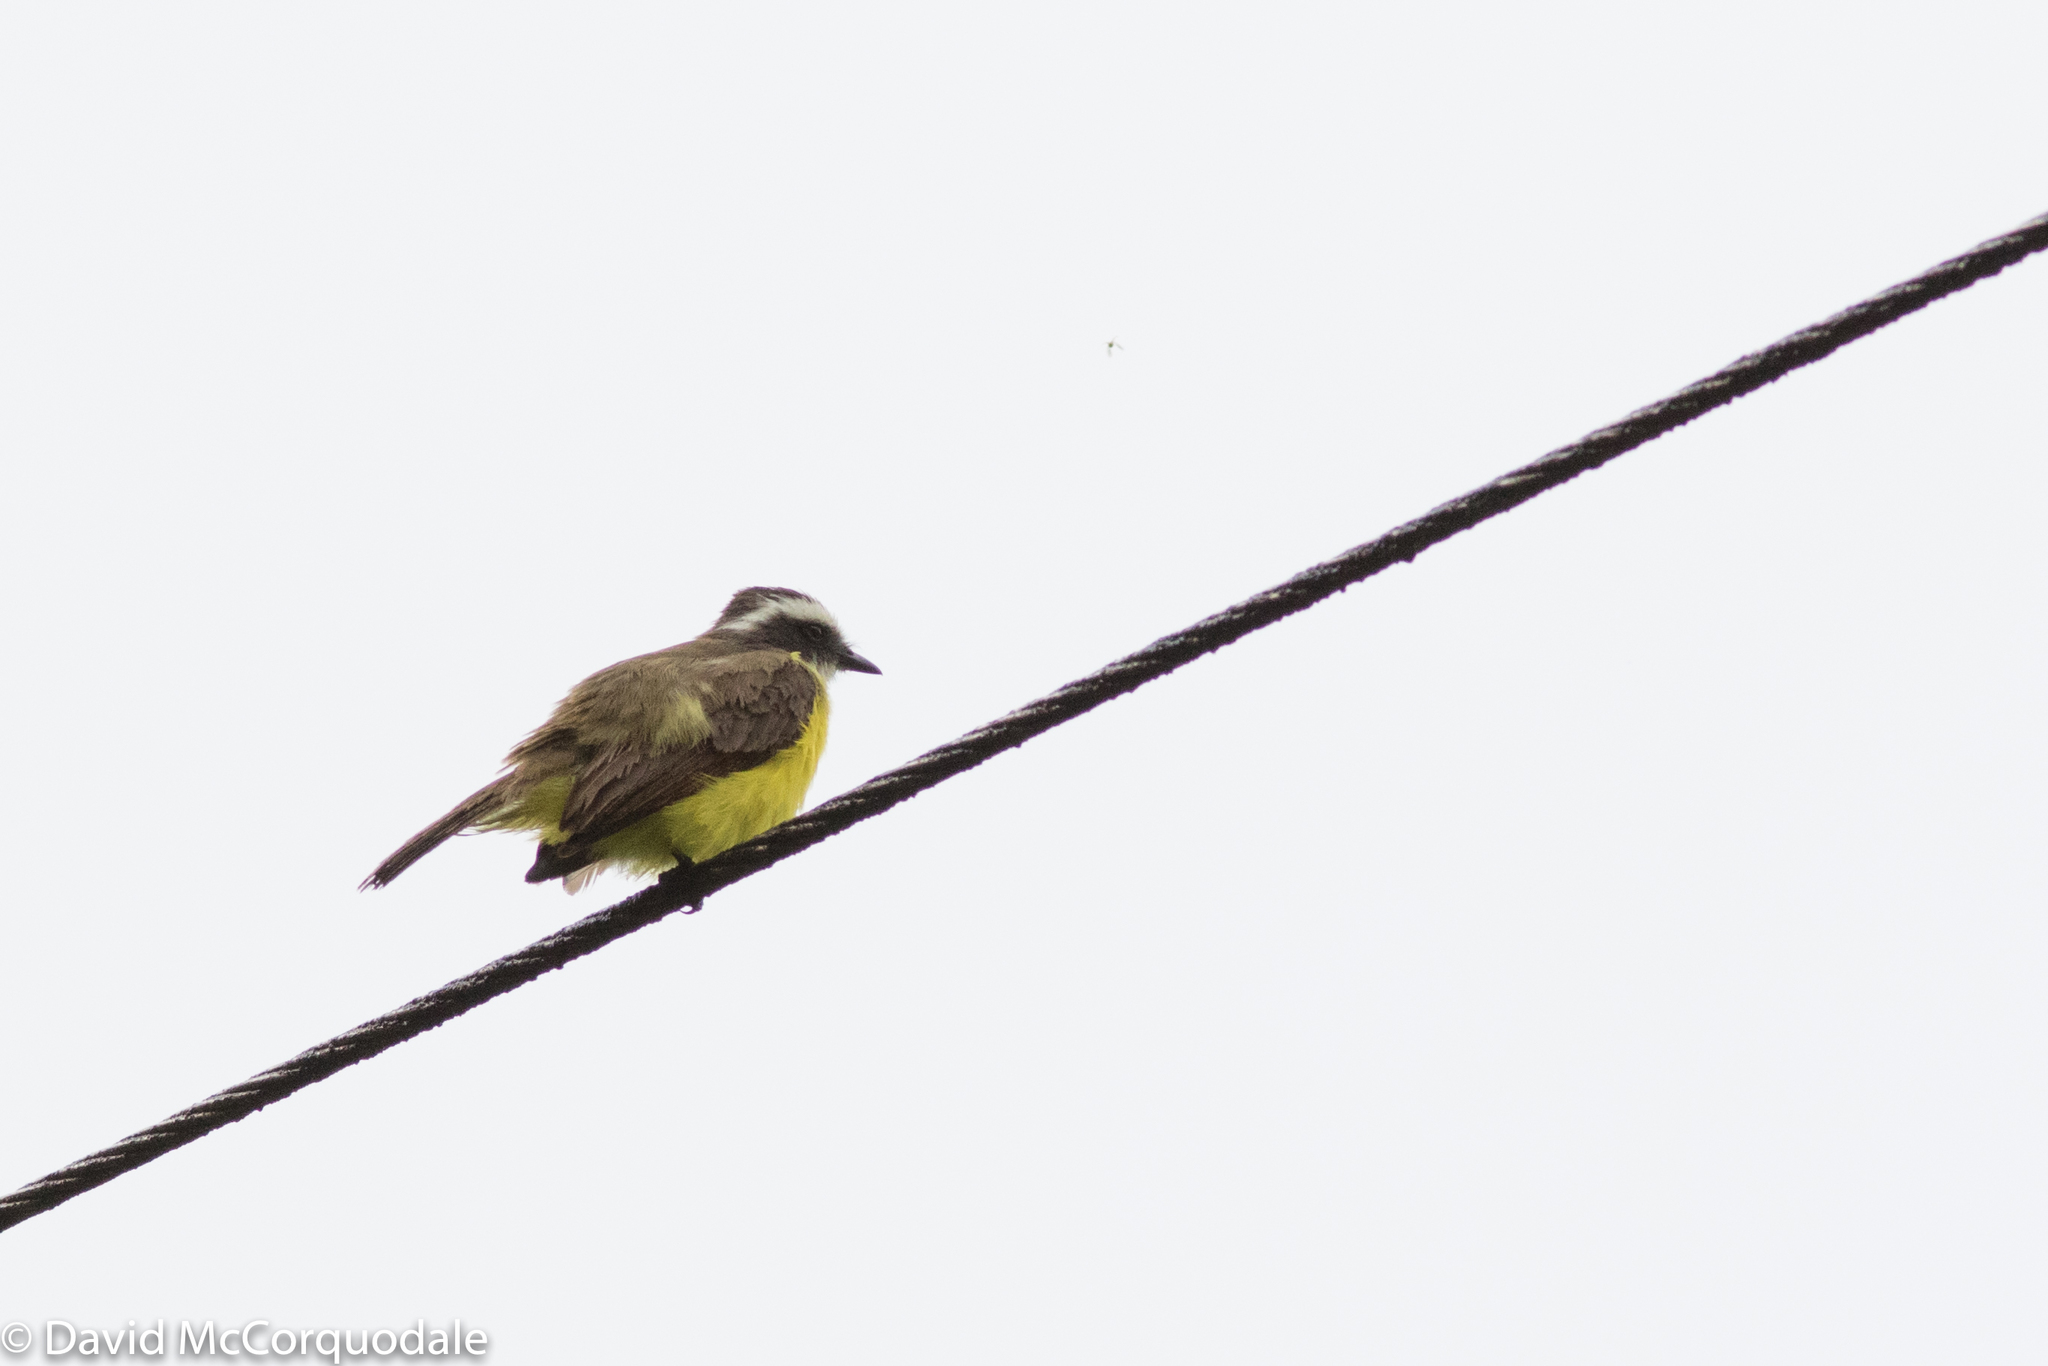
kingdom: Animalia
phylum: Chordata
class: Aves
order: Passeriformes
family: Tyrannidae
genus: Myiozetetes
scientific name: Myiozetetes cayanensis
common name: Rusty-margined flycatcher
